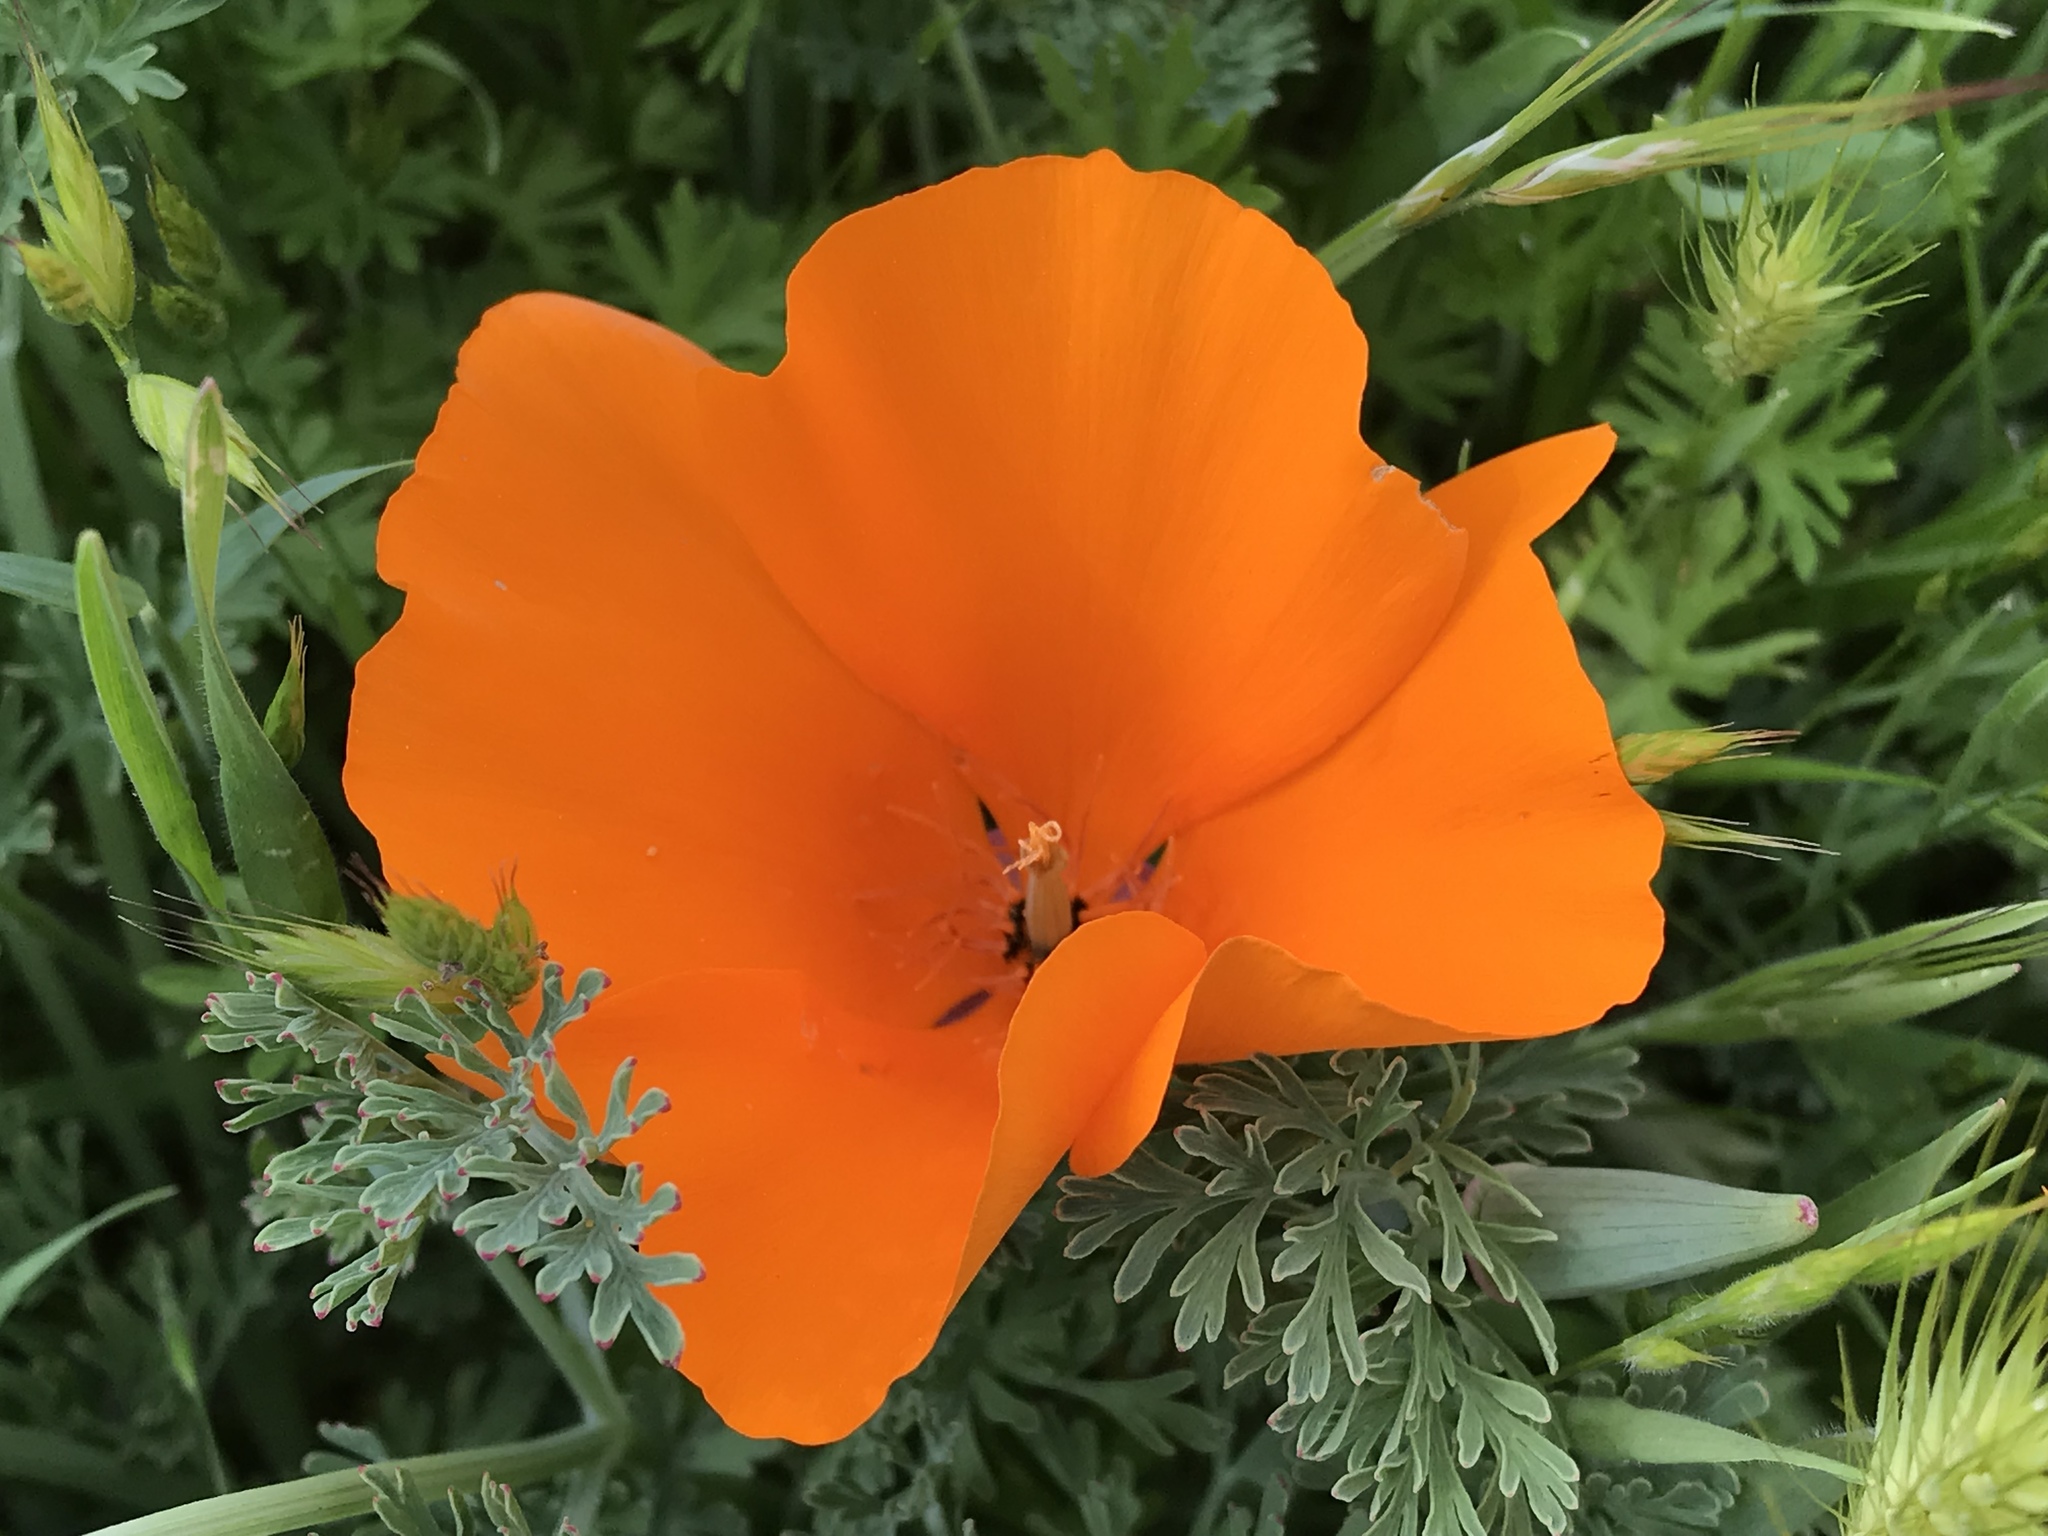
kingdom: Plantae
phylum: Tracheophyta
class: Magnoliopsida
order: Ranunculales
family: Papaveraceae
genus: Eschscholzia
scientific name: Eschscholzia californica
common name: California poppy
